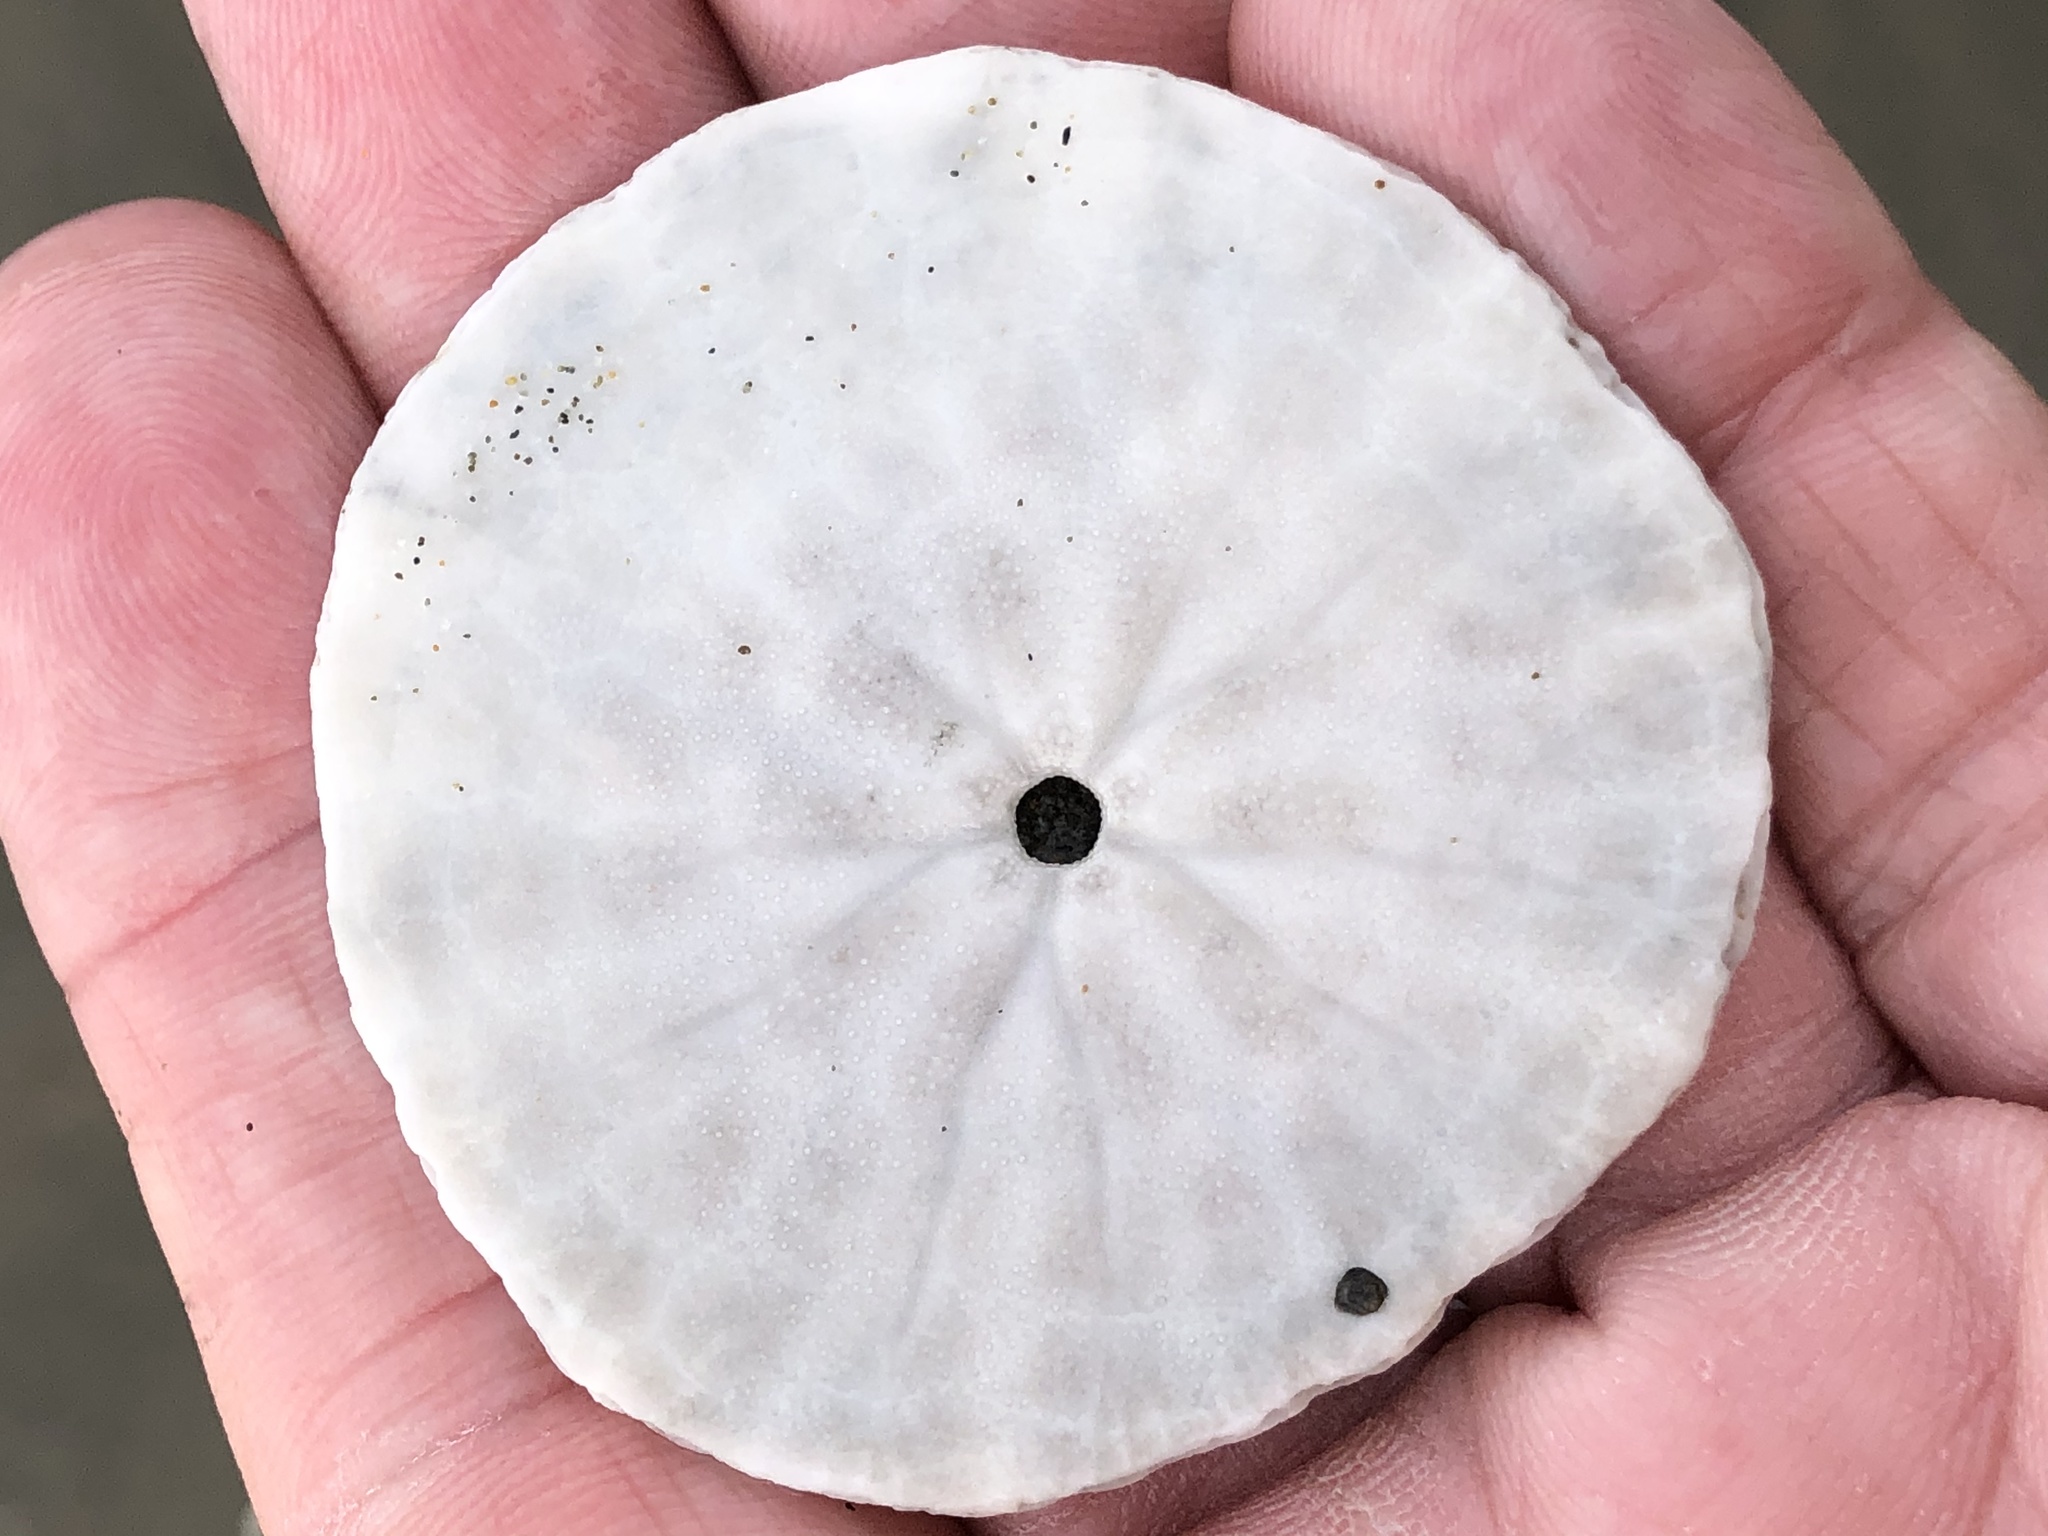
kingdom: Animalia
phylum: Echinodermata
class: Echinoidea
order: Echinolampadacea
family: Dendrasteridae
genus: Dendraster
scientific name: Dendraster excentricus
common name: Eccentric sand dollar sea urchin
